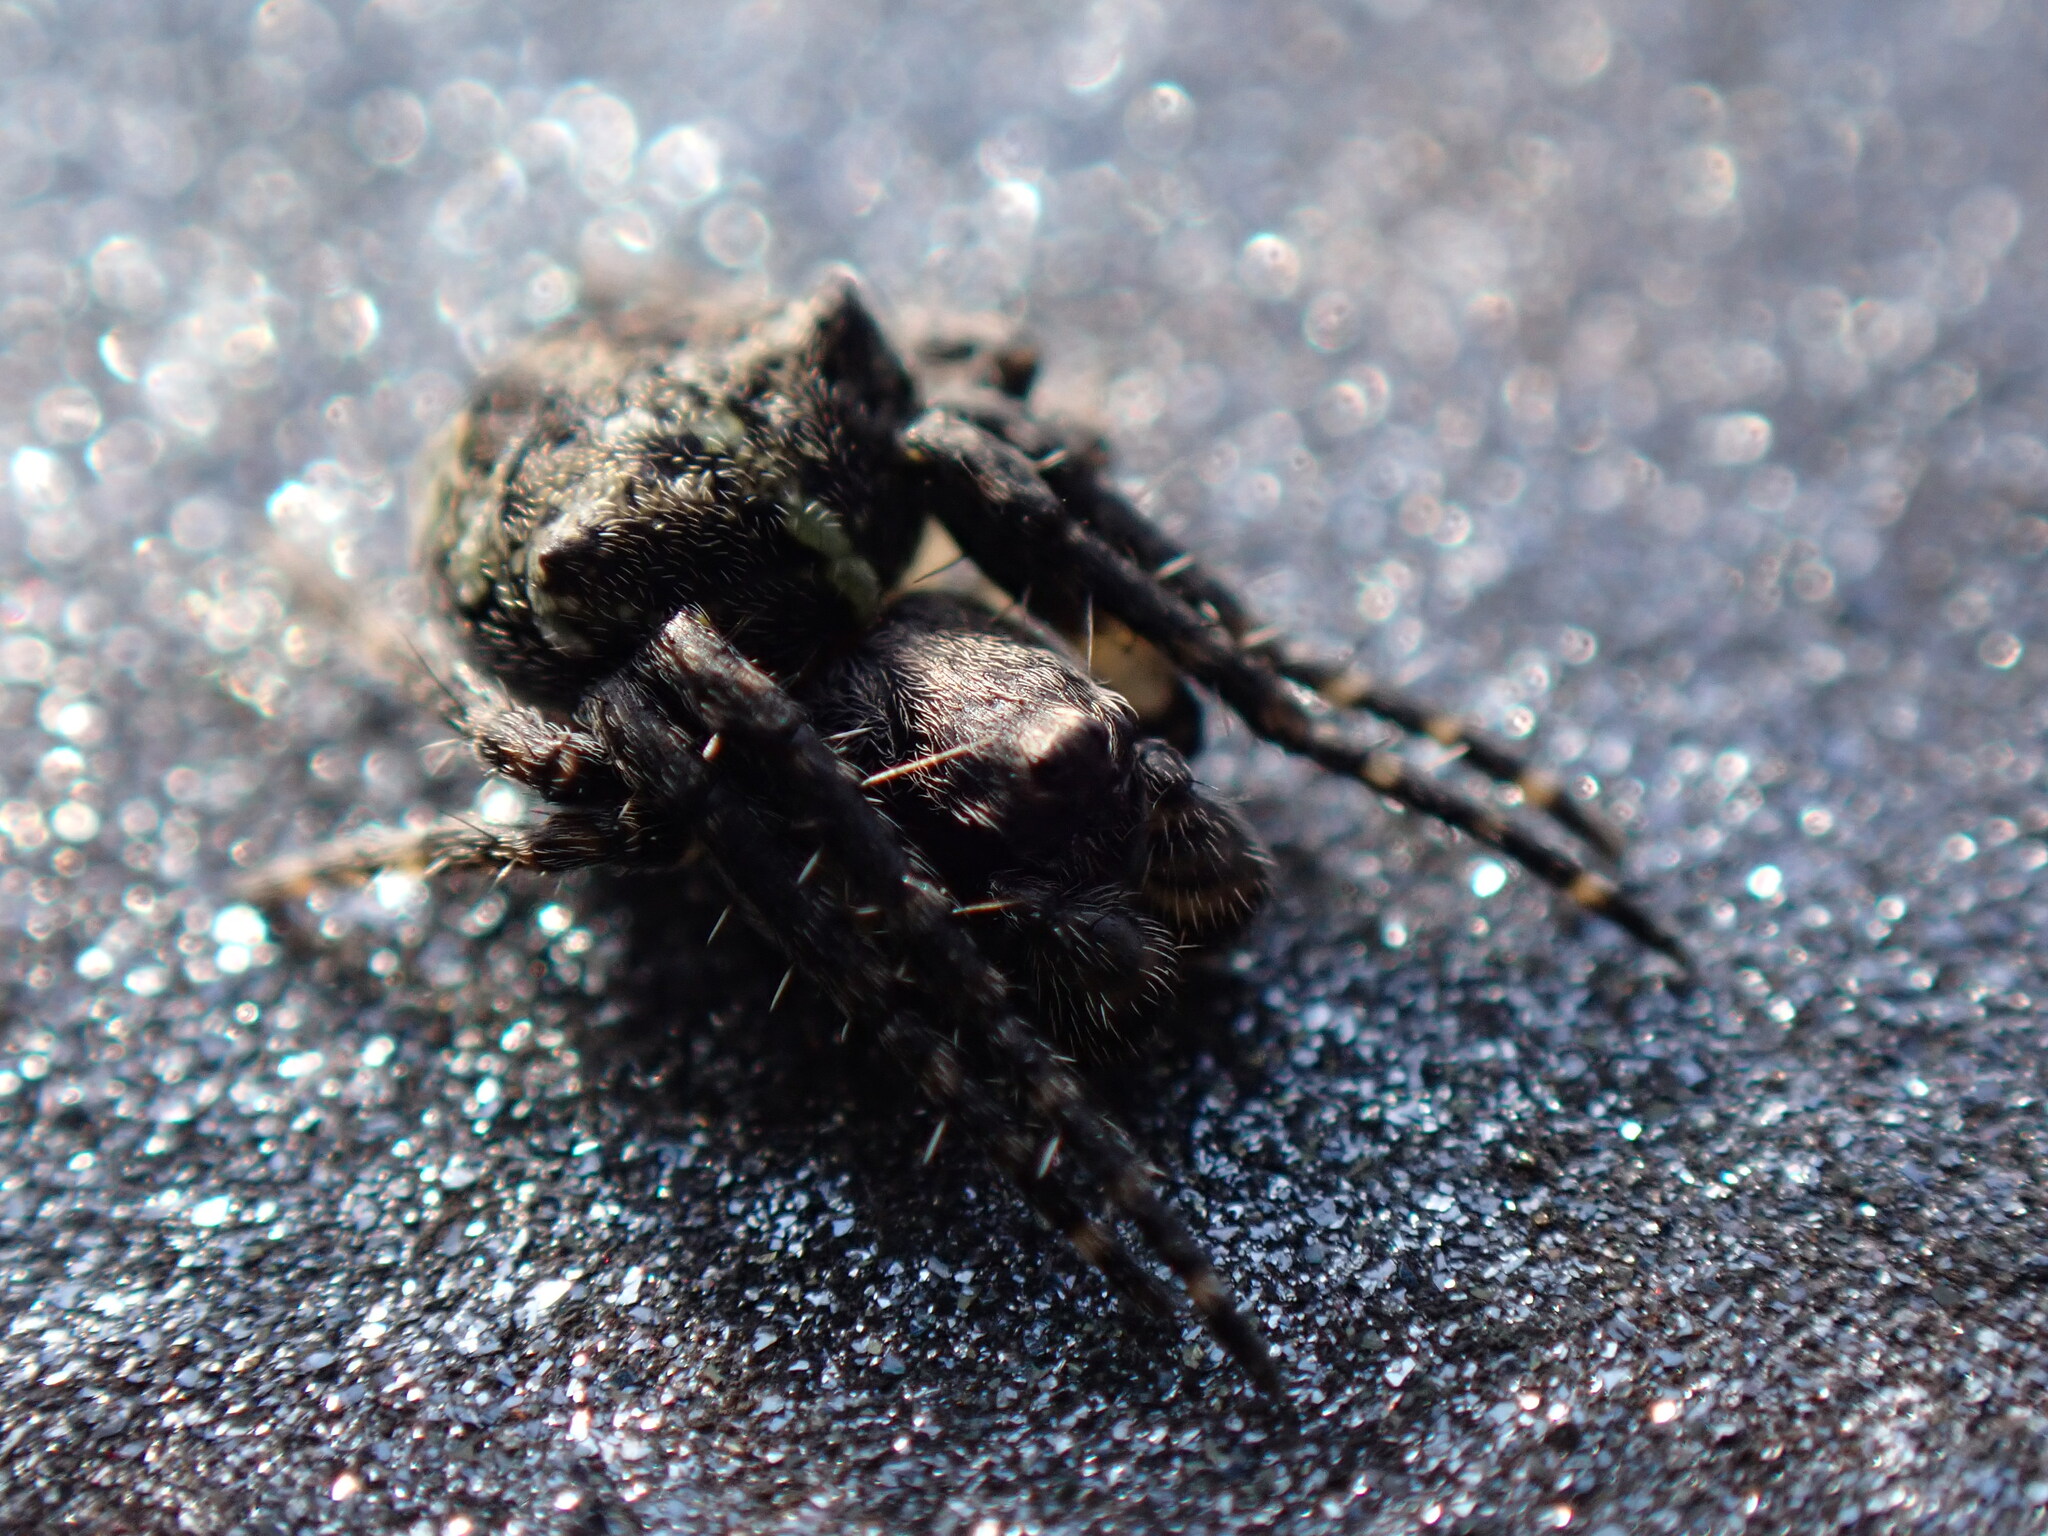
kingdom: Animalia
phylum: Arthropoda
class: Arachnida
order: Araneae
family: Araneidae
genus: Gibbaranea
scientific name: Gibbaranea gibbosa
